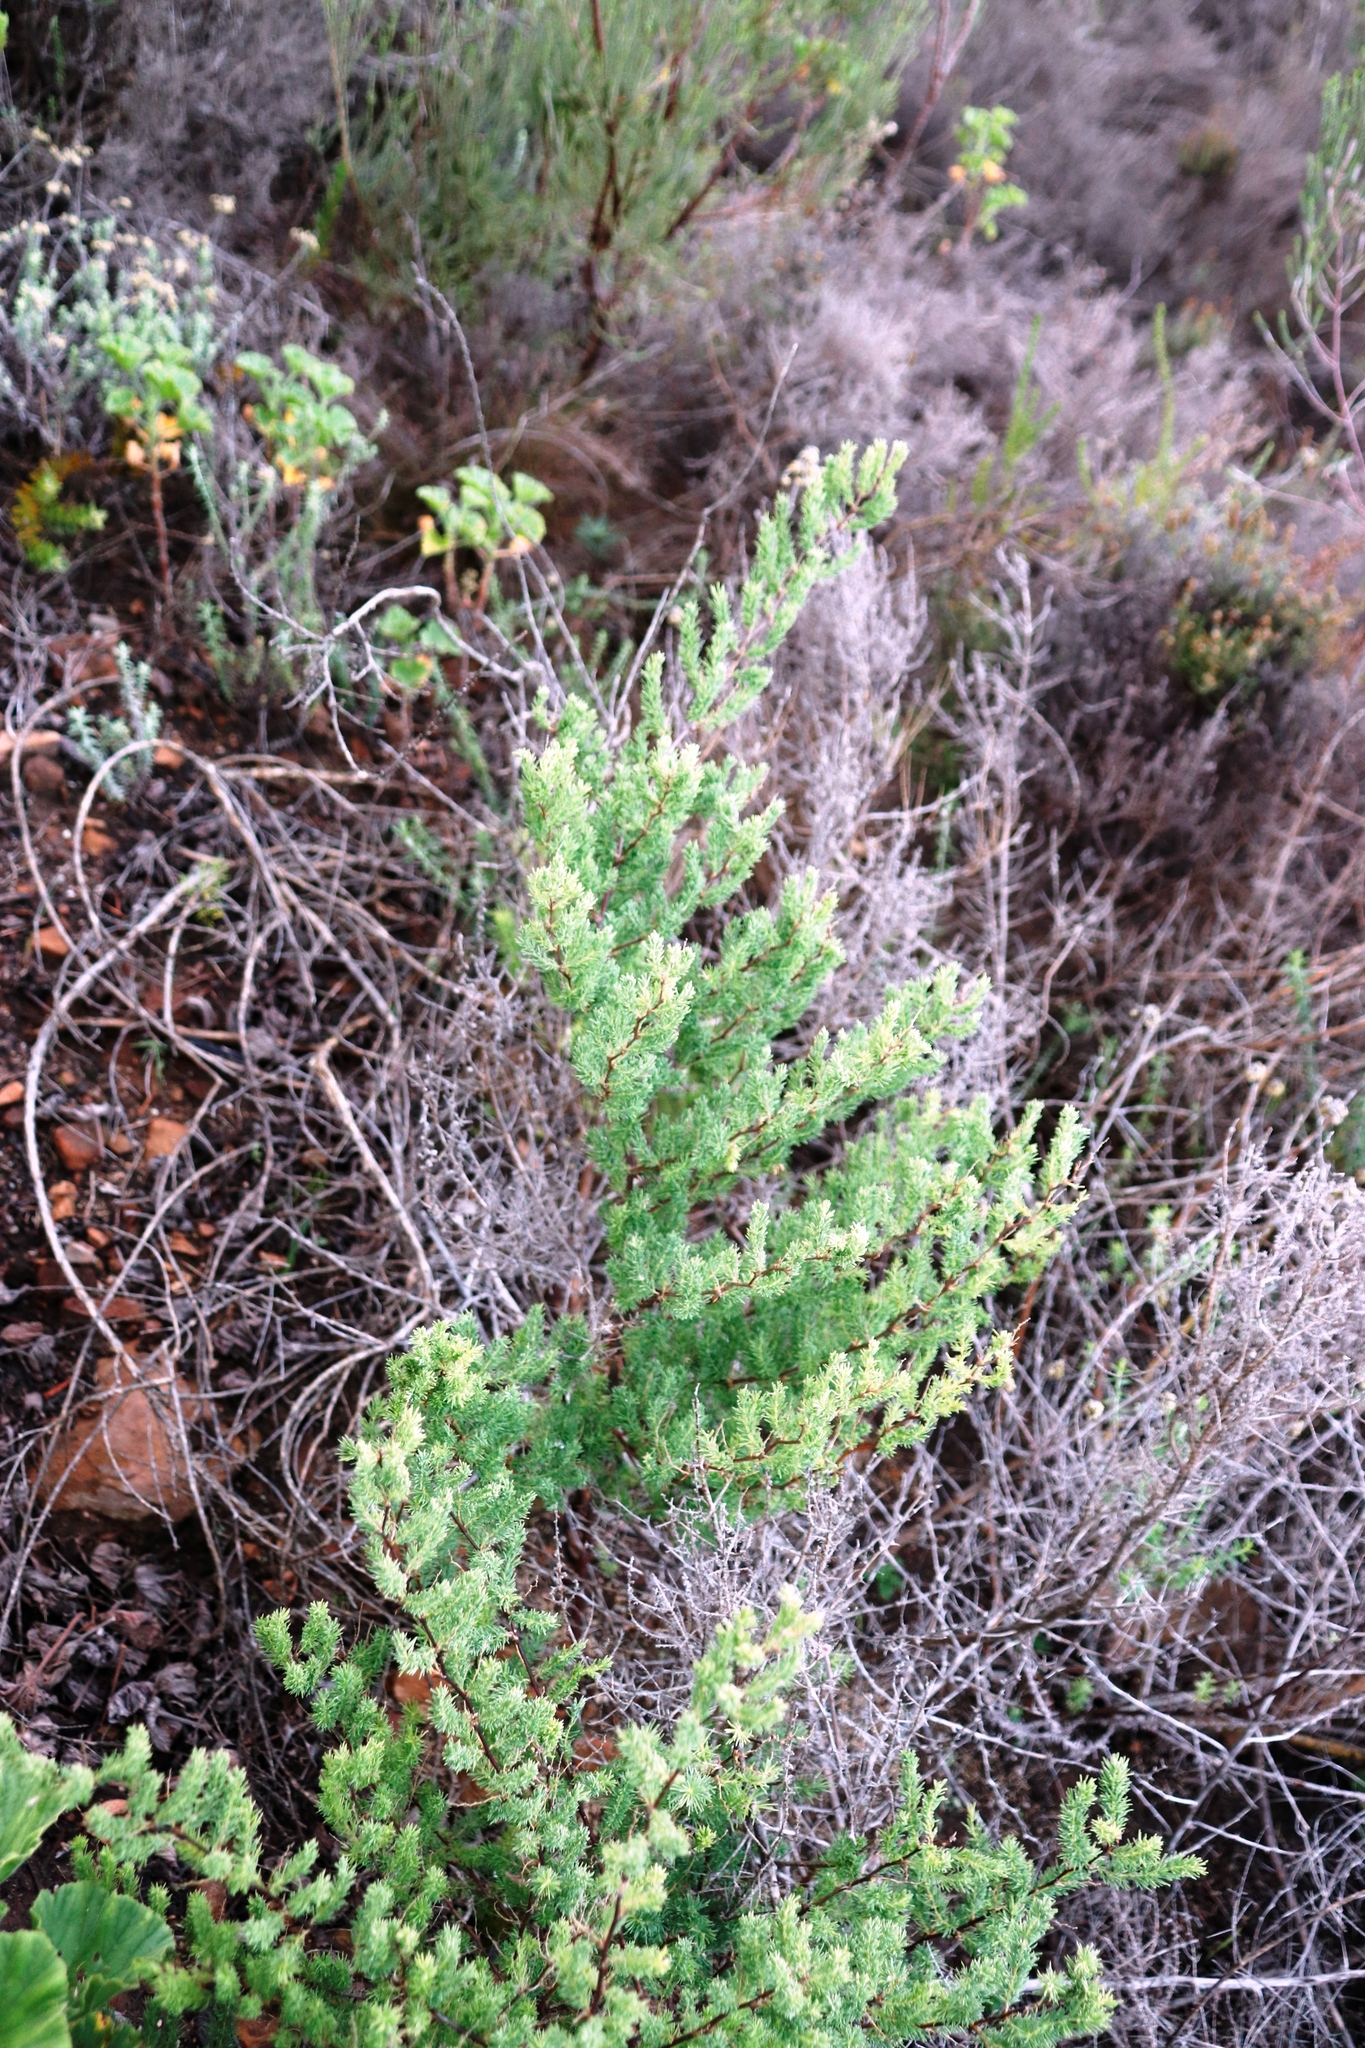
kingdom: Plantae
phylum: Tracheophyta
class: Liliopsida
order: Asparagales
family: Asparagaceae
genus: Asparagus
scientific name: Asparagus rubicundus
